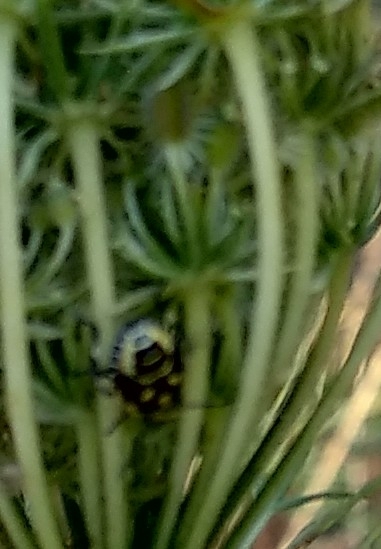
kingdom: Animalia
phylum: Arthropoda
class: Insecta
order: Hemiptera
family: Pentatomidae
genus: Eurydema
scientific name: Eurydema oleracea
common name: Cabbage bug
